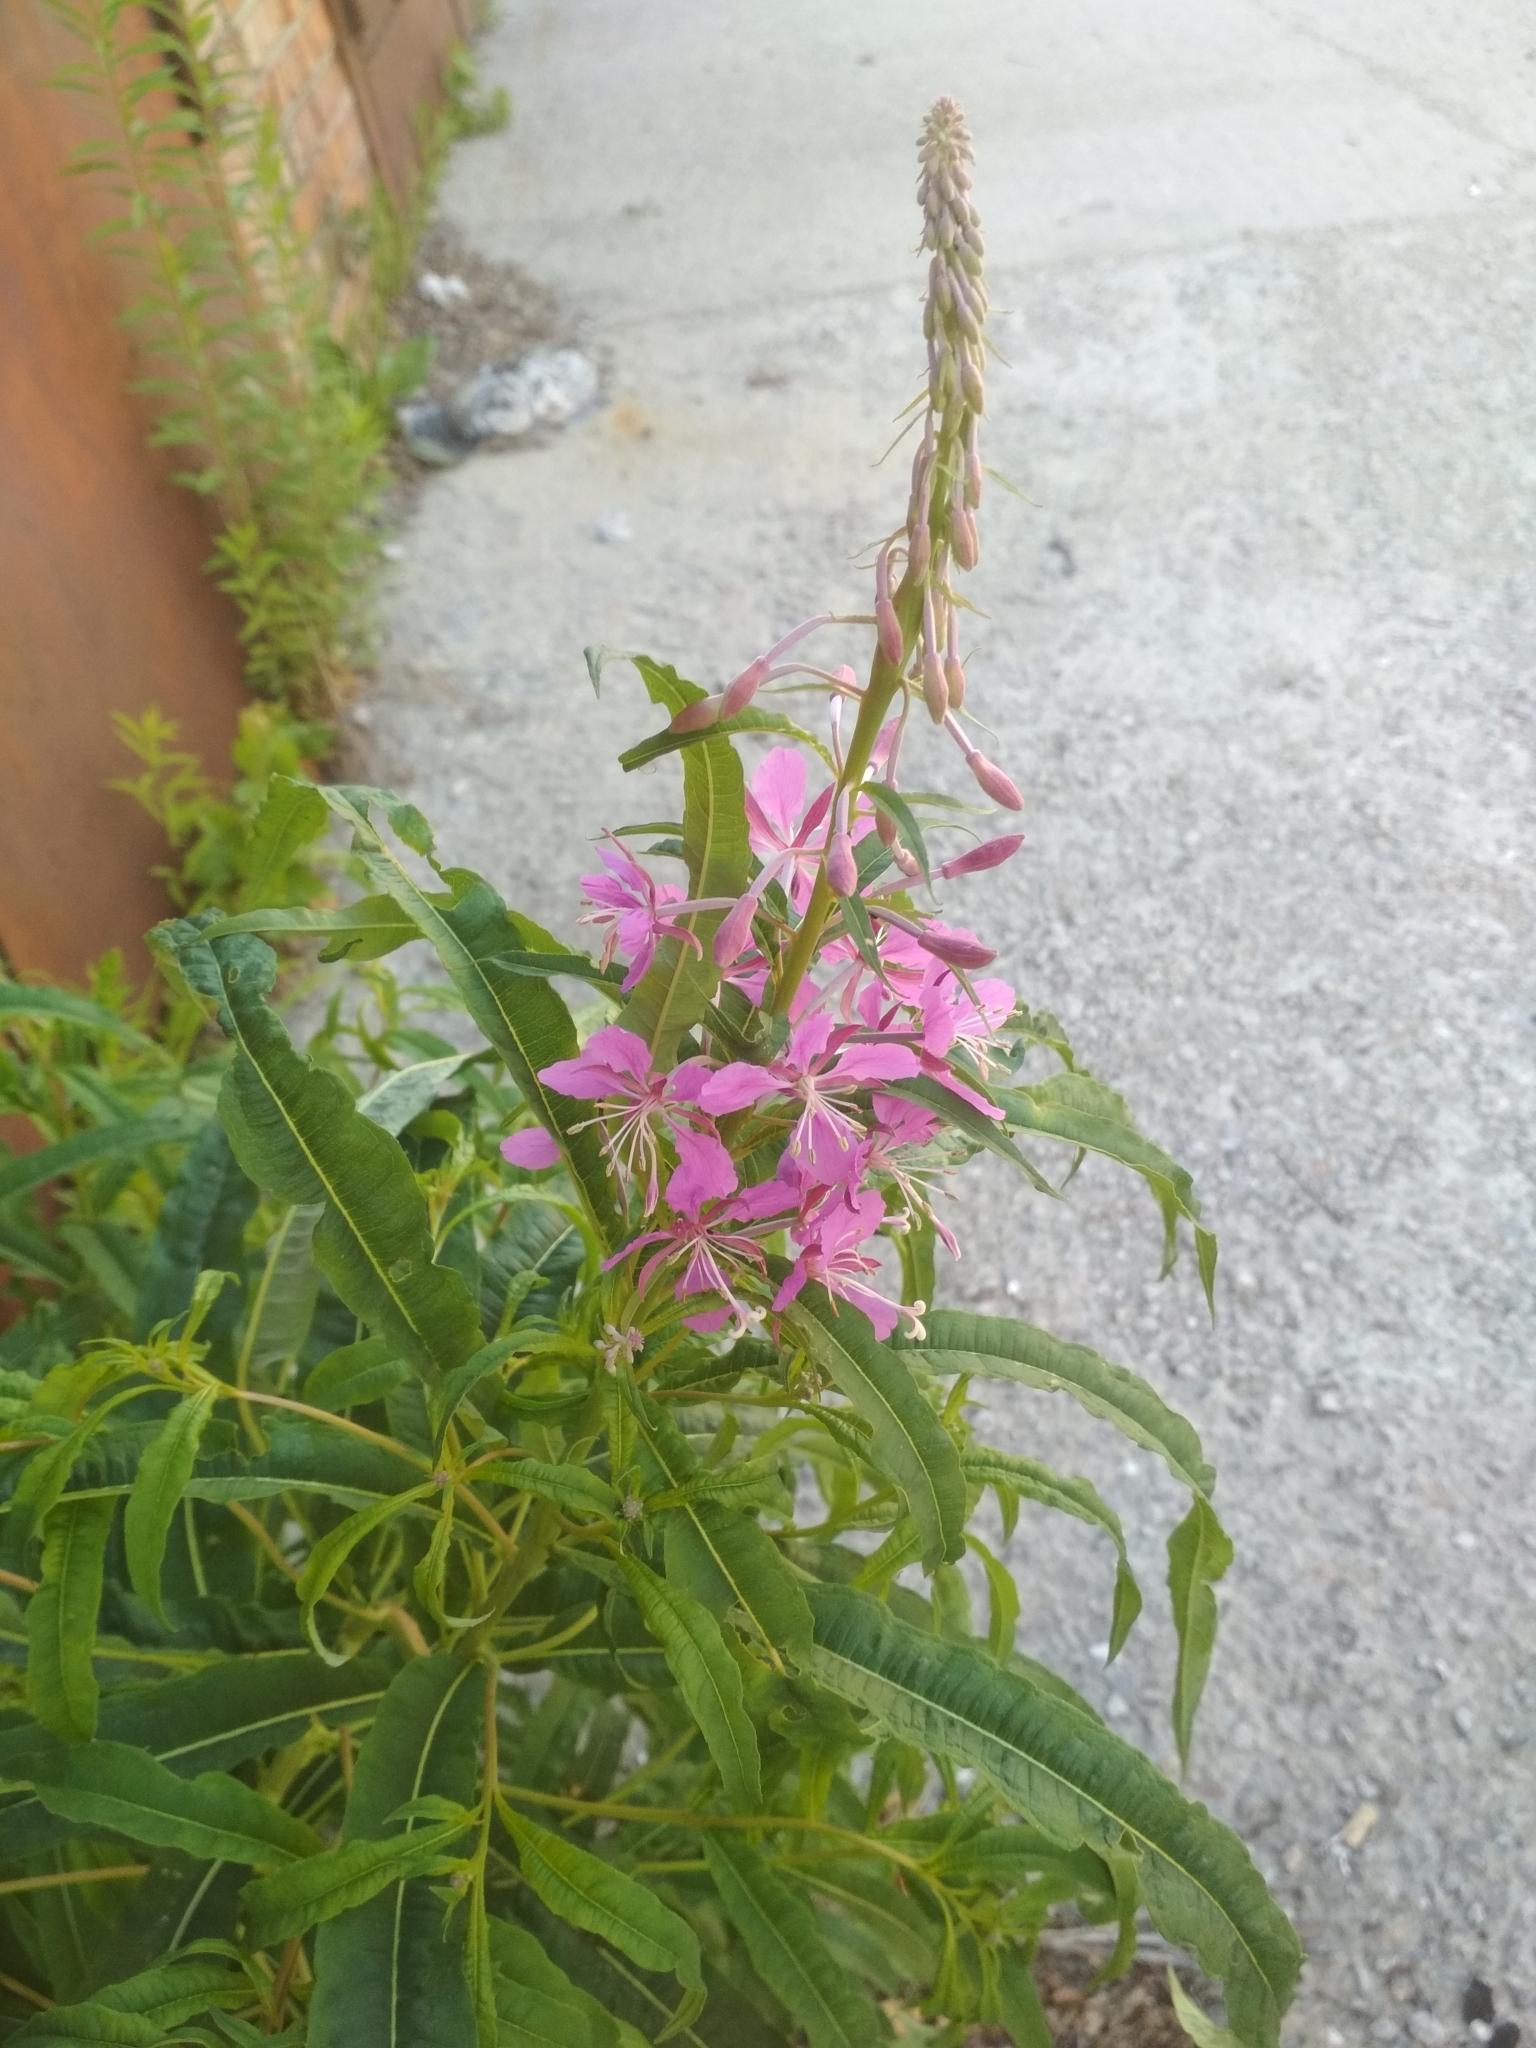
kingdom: Plantae
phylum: Tracheophyta
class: Magnoliopsida
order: Myrtales
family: Onagraceae
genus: Chamaenerion
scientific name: Chamaenerion angustifolium
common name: Fireweed
